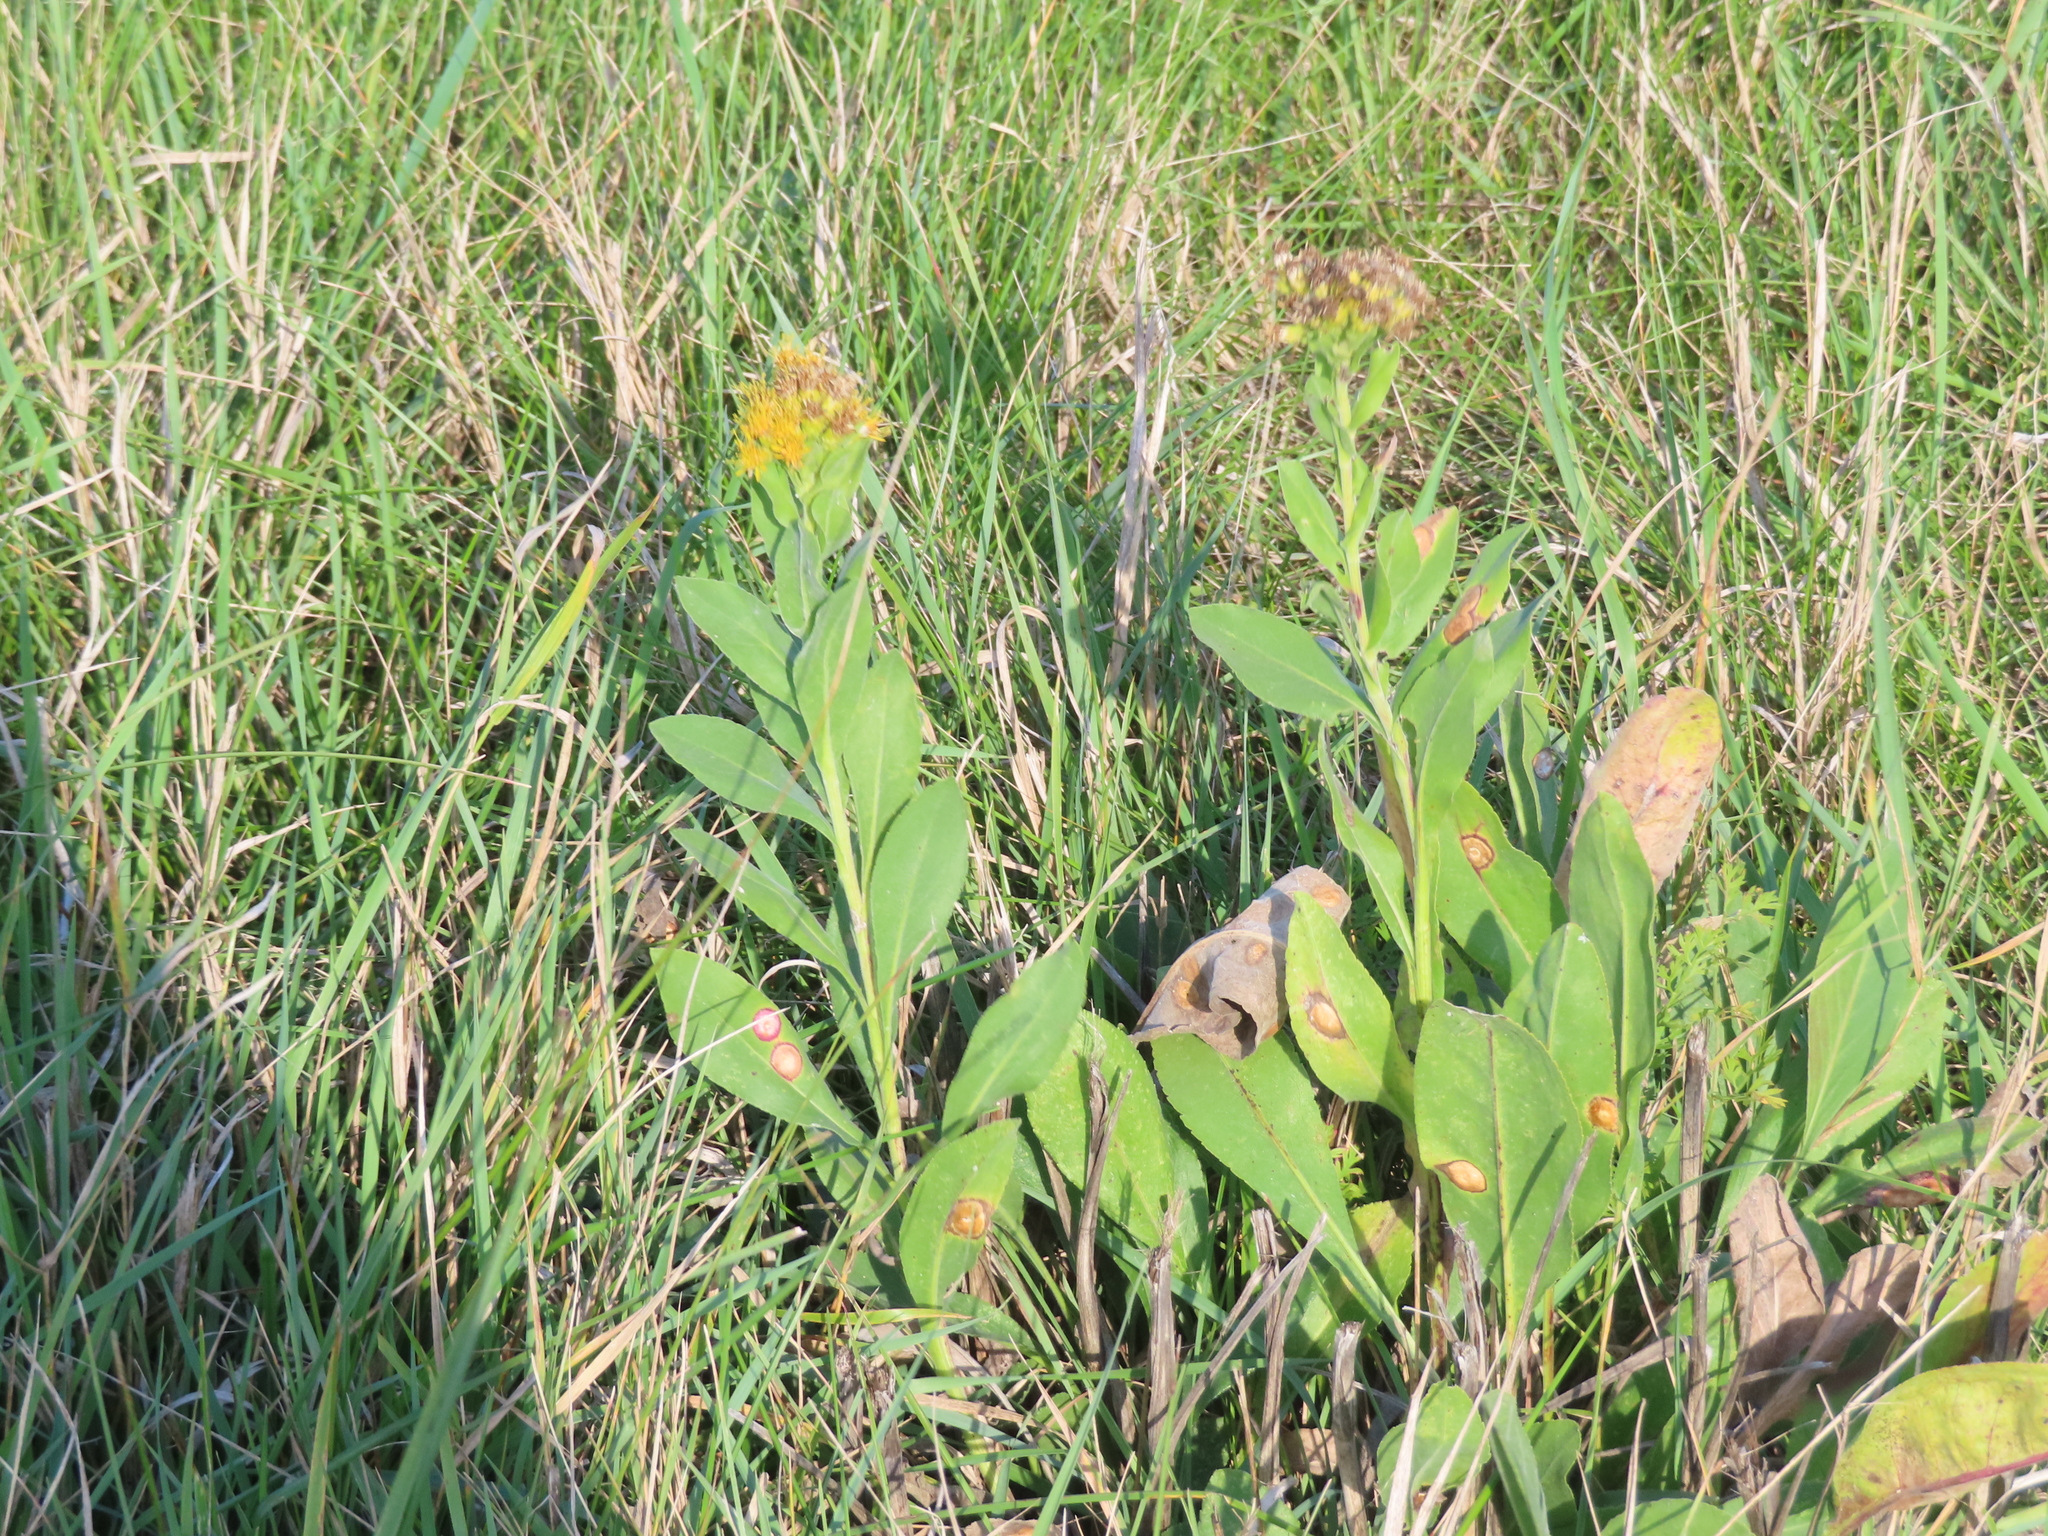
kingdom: Plantae
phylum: Tracheophyta
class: Magnoliopsida
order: Asterales
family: Asteraceae
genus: Solidago
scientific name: Solidago rigida
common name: Rigid goldenrod
